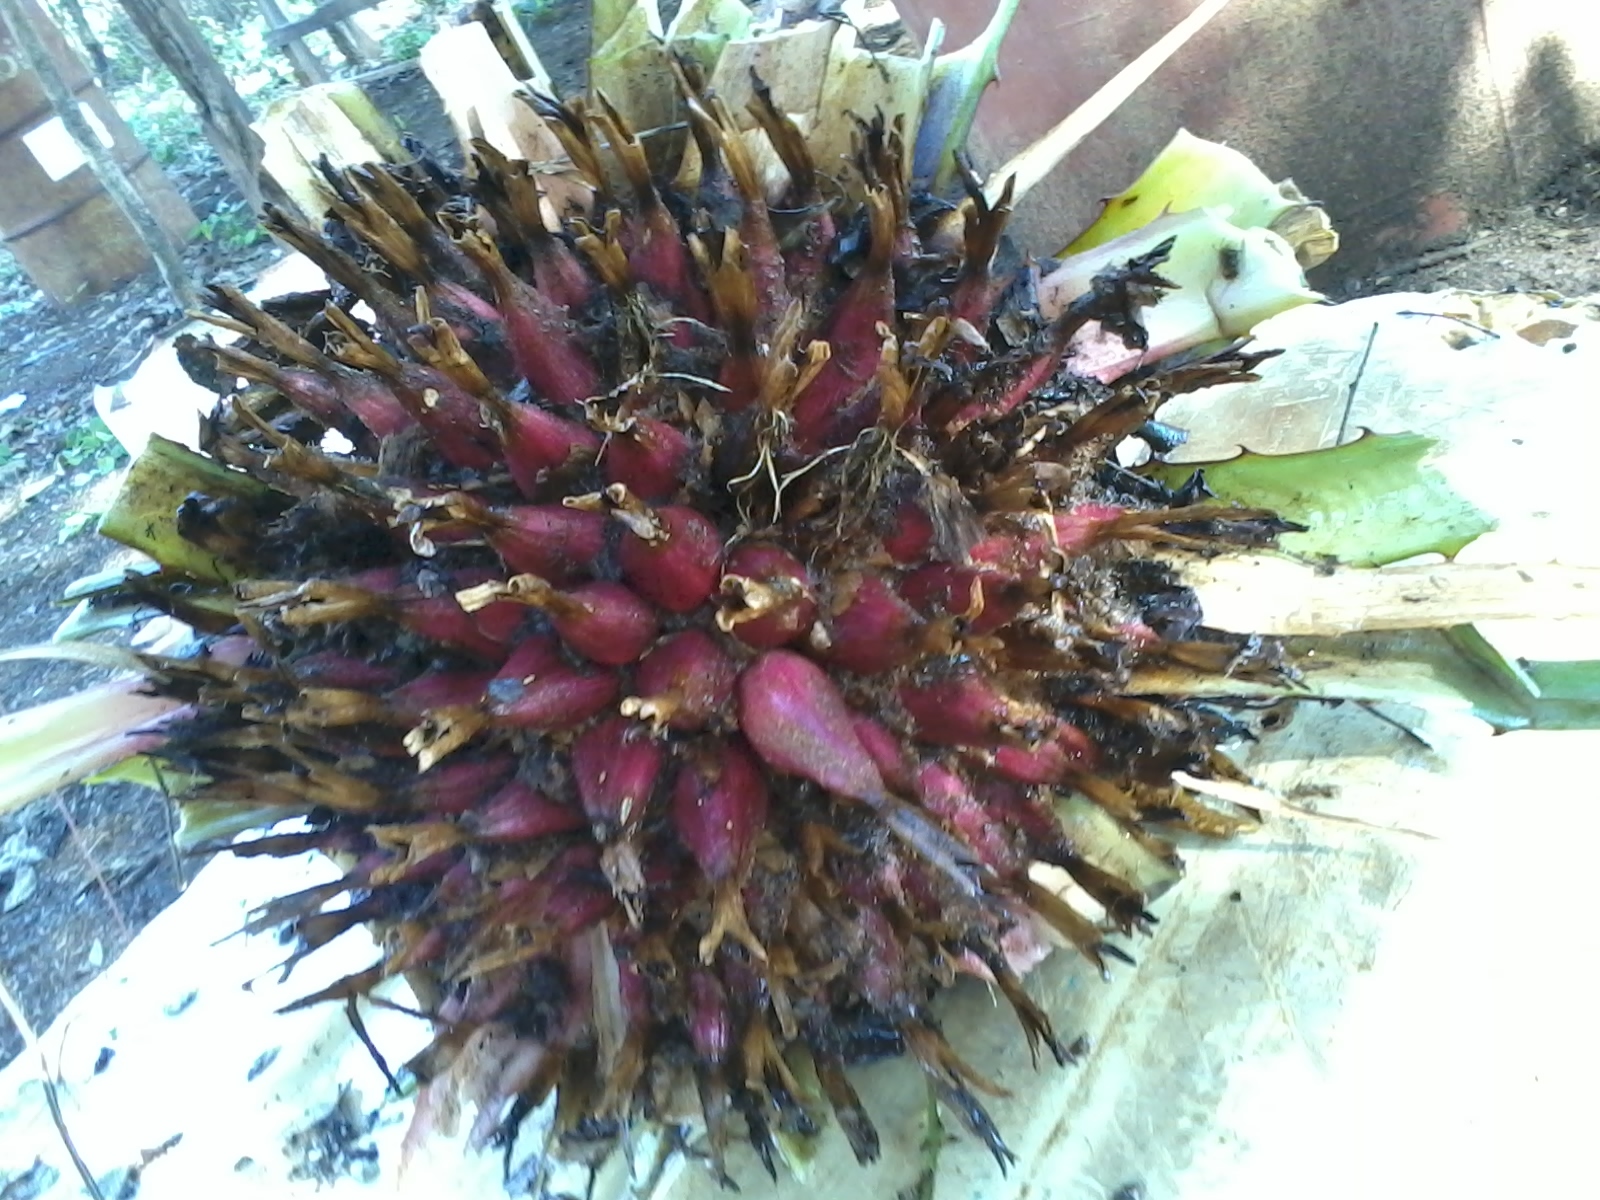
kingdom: Plantae
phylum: Tracheophyta
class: Liliopsida
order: Poales
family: Bromeliaceae
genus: Bromelia
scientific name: Bromelia karatas
